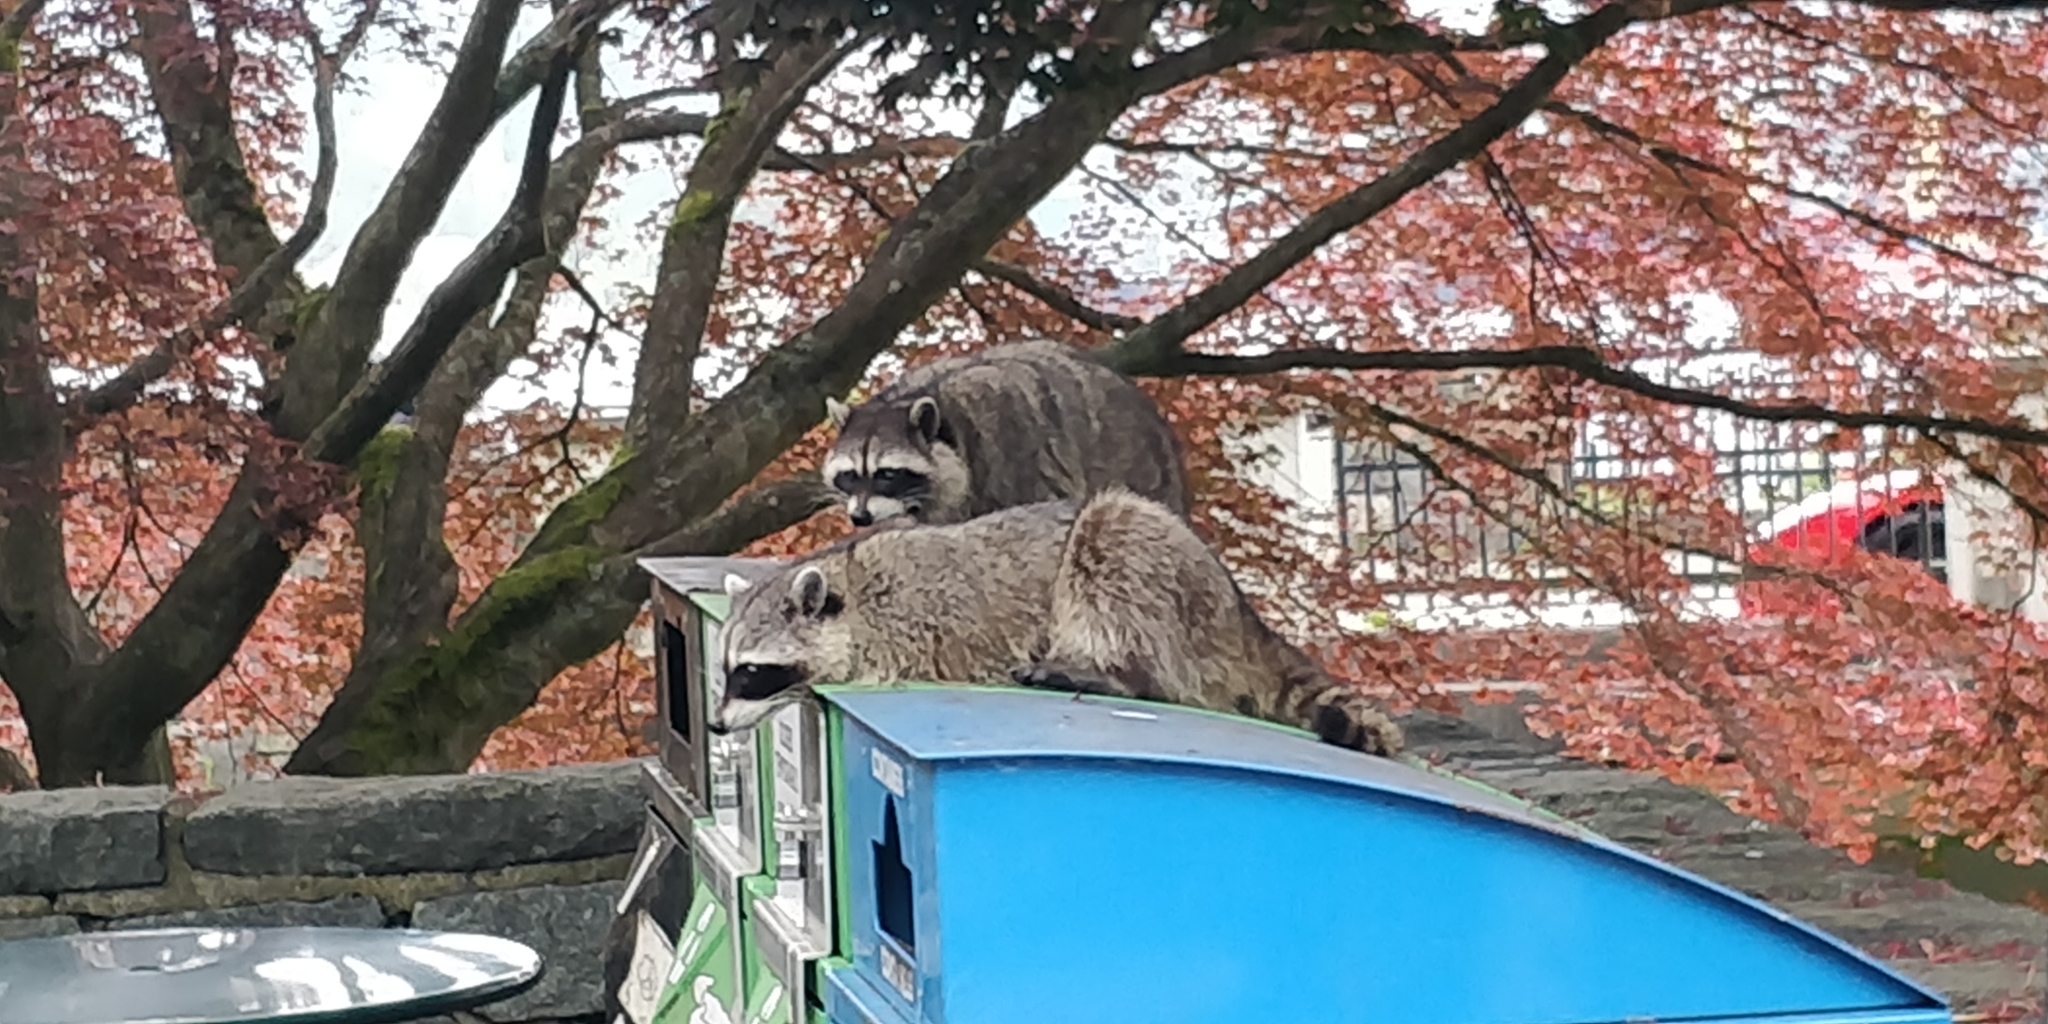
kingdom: Animalia
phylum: Chordata
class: Mammalia
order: Carnivora
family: Procyonidae
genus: Procyon
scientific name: Procyon lotor
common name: Raccoon
